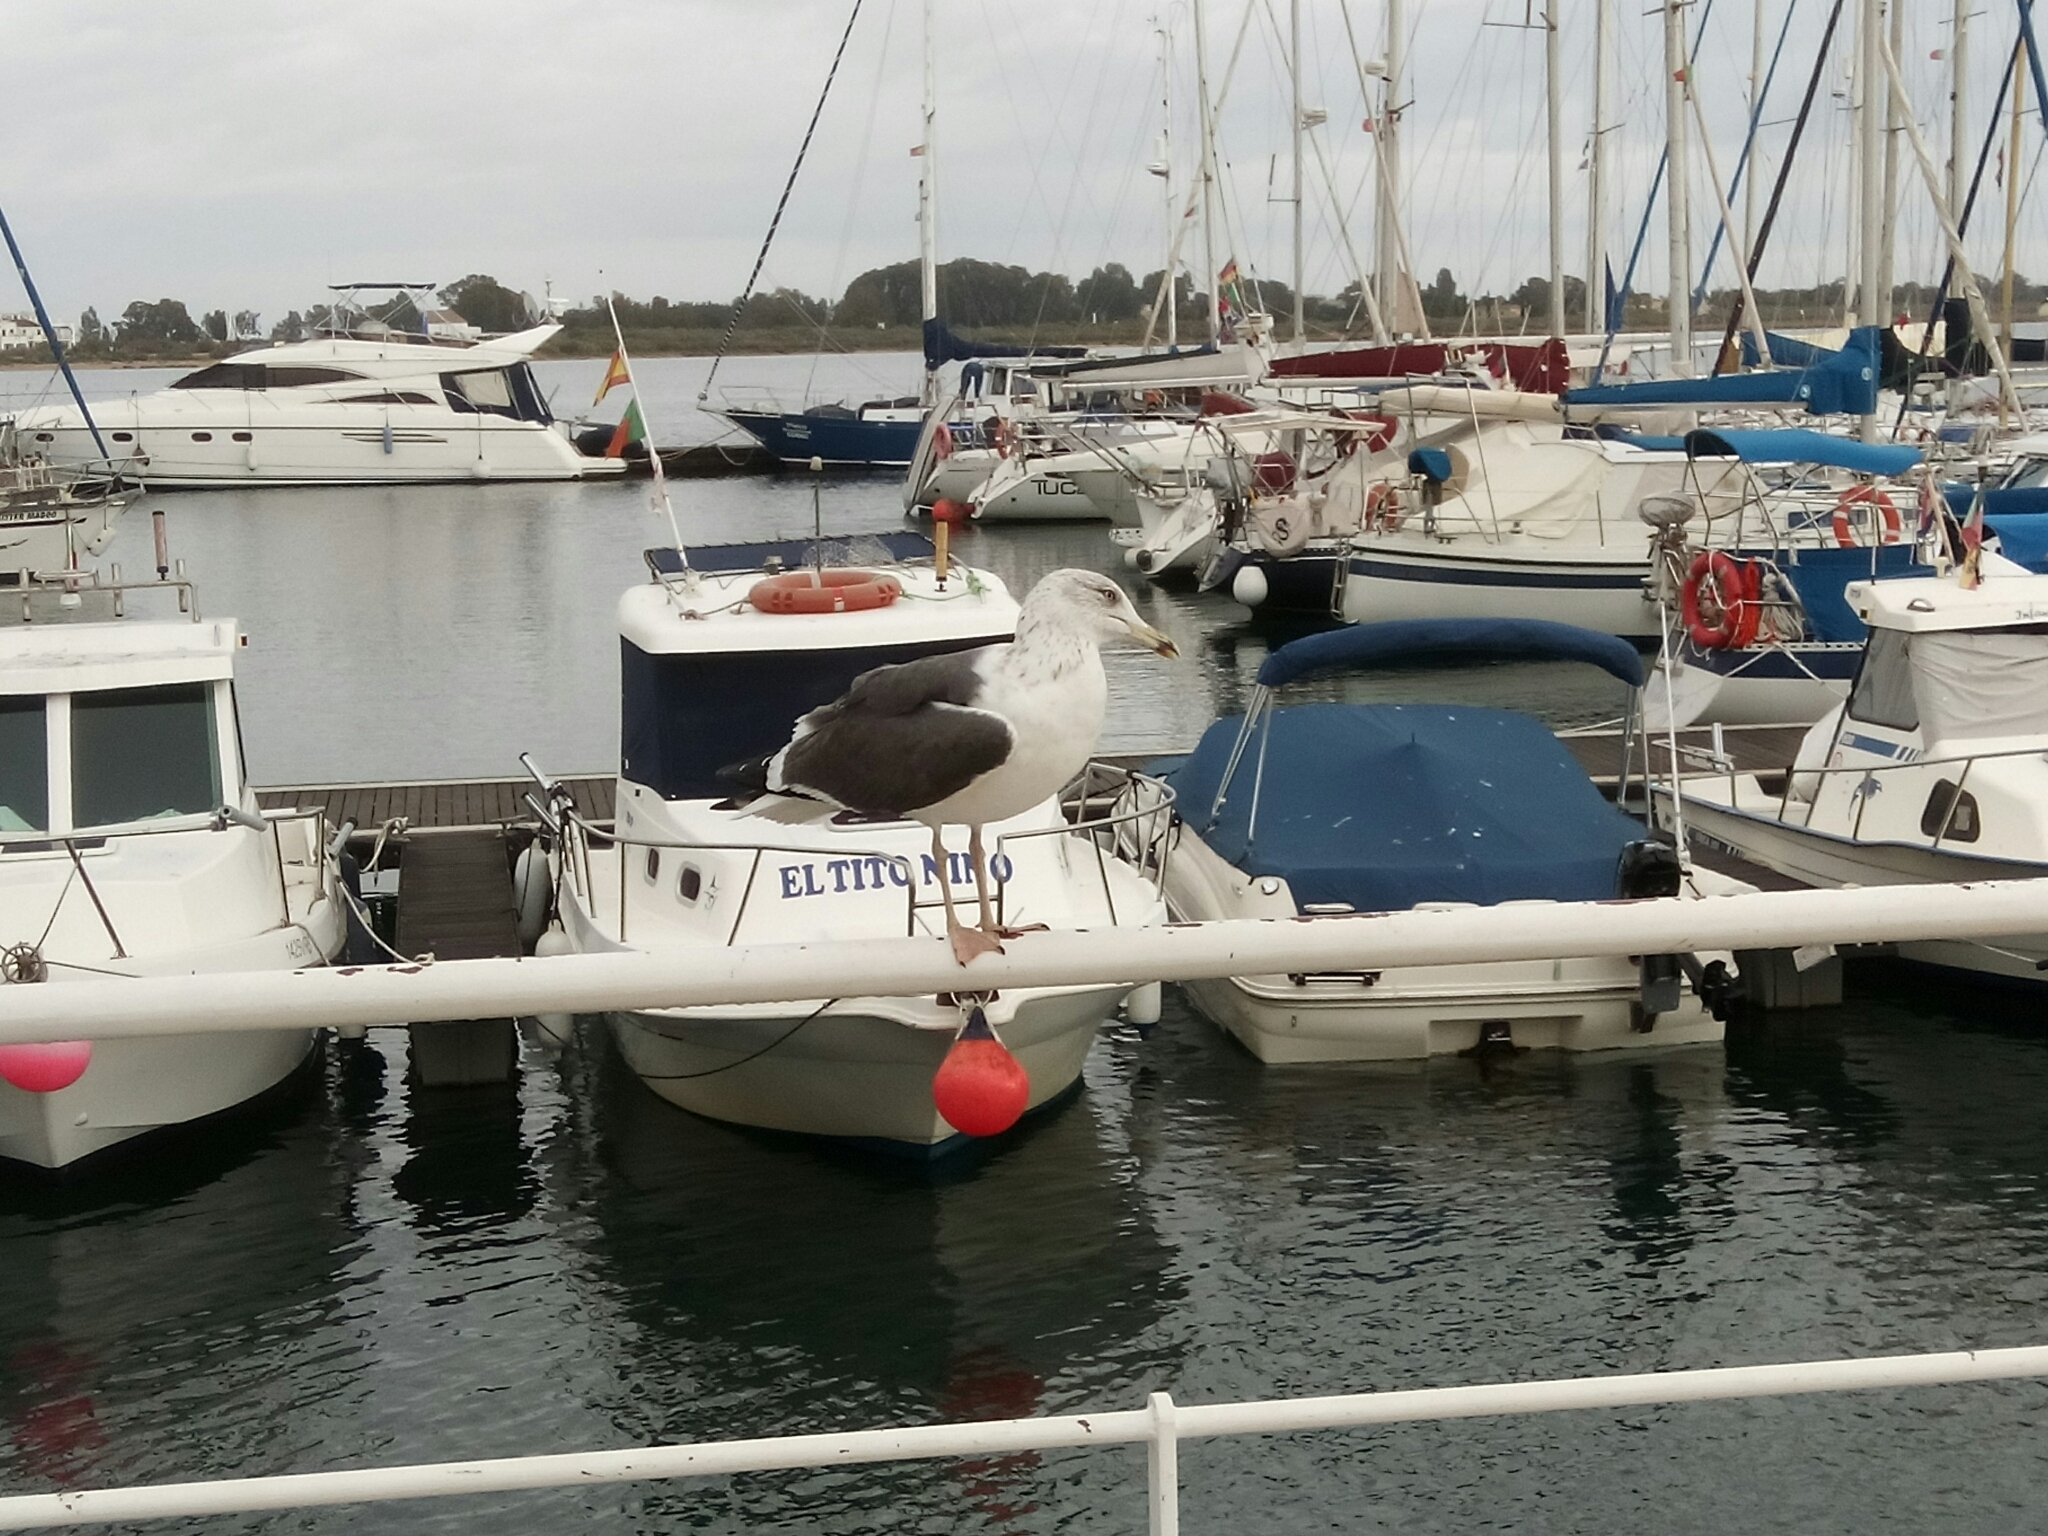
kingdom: Animalia
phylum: Chordata
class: Aves
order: Charadriiformes
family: Laridae
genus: Larus
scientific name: Larus fuscus
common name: Lesser black-backed gull
